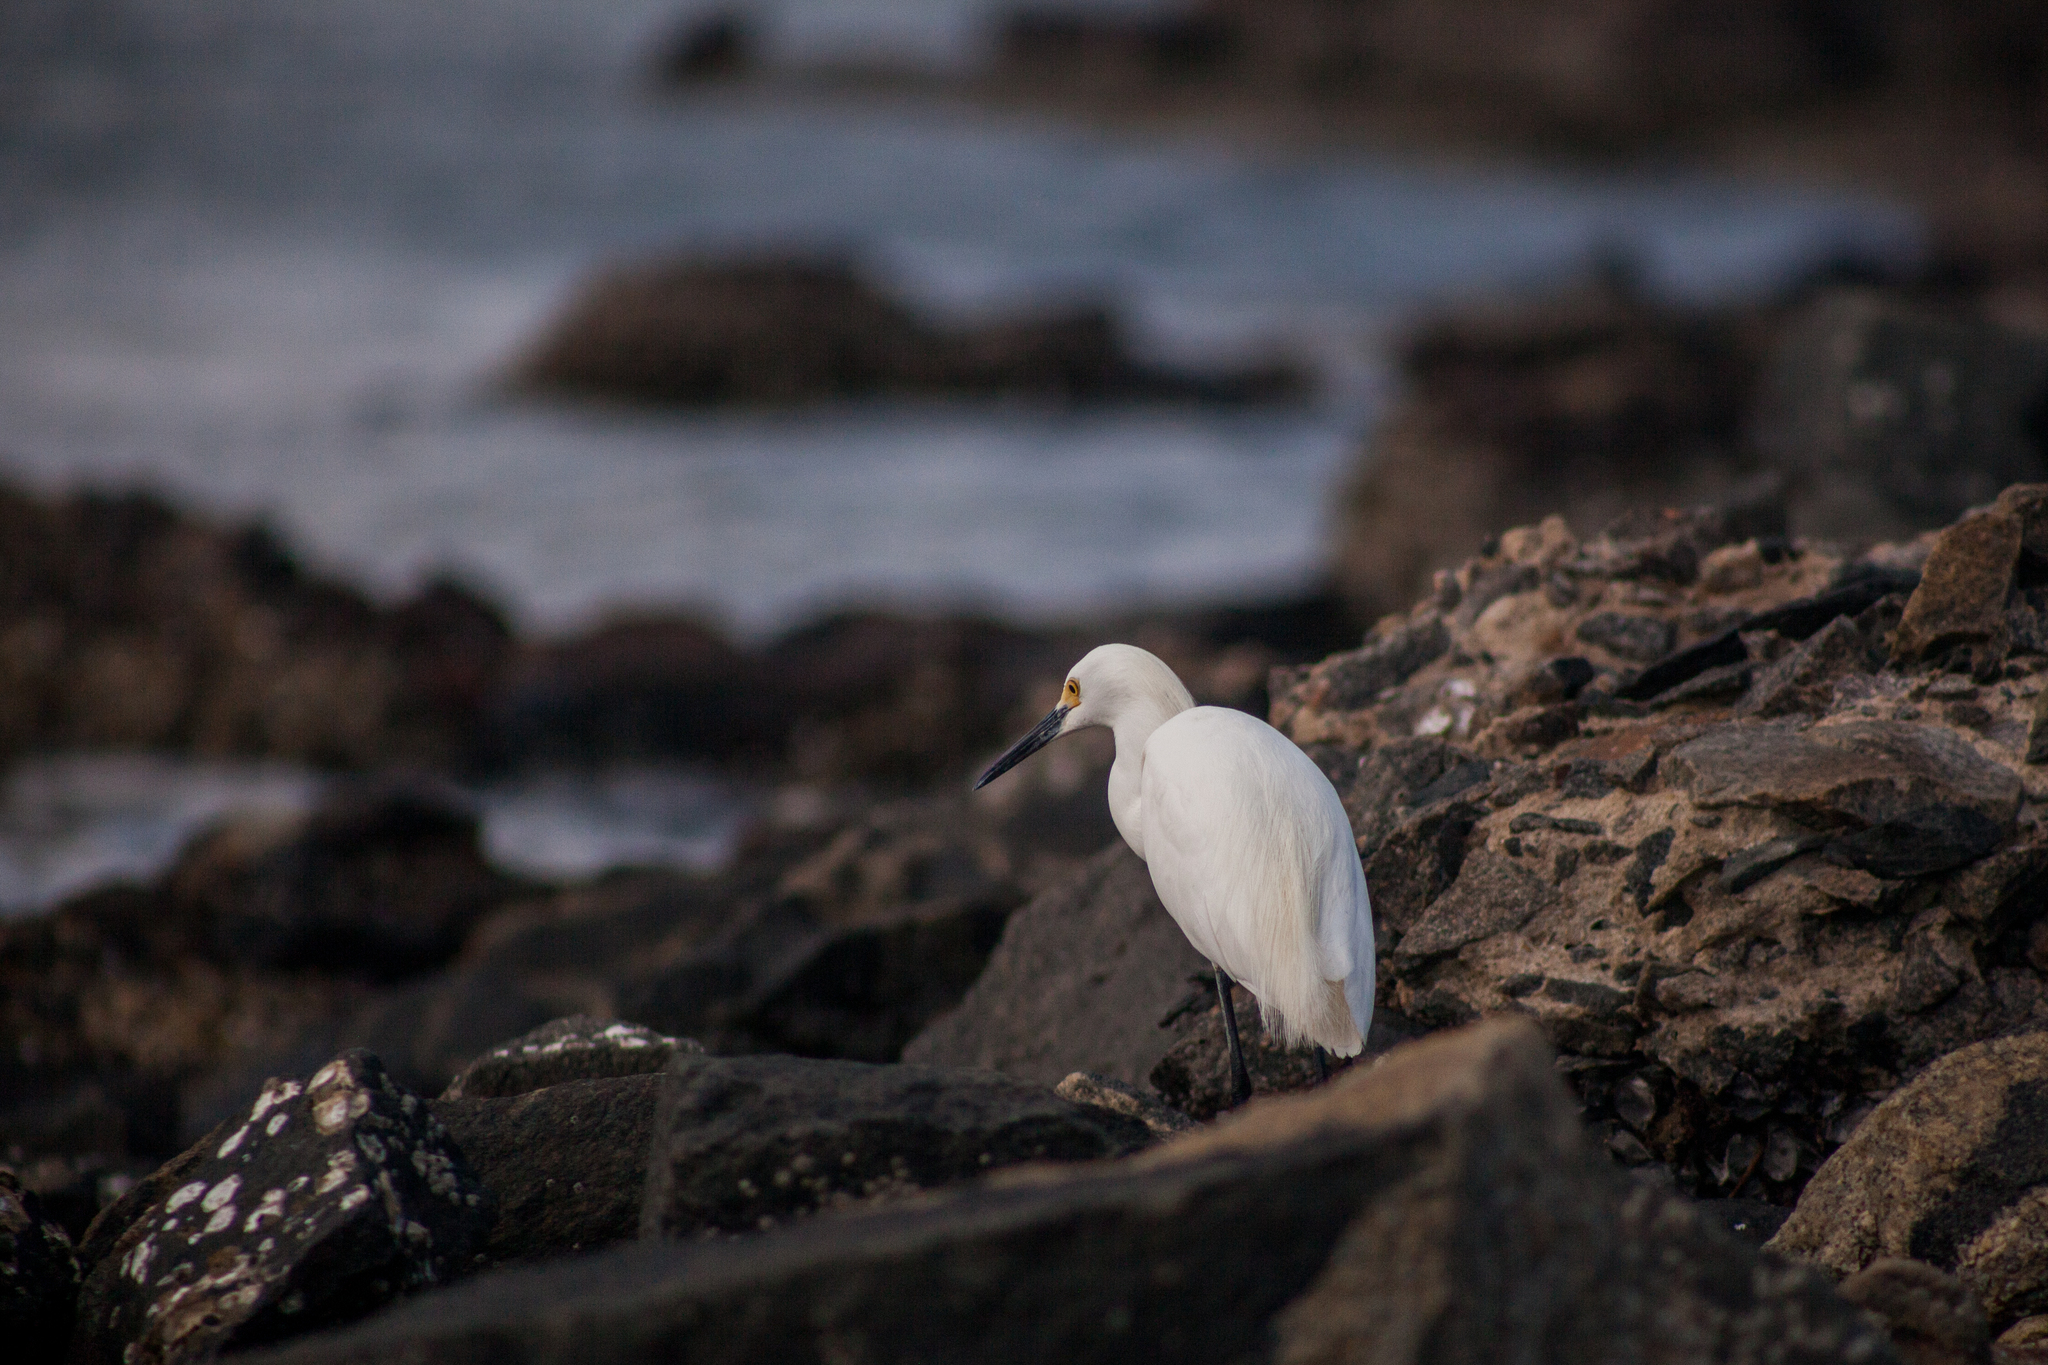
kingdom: Animalia
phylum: Chordata
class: Aves
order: Pelecaniformes
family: Ardeidae
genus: Egretta
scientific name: Egretta thula
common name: Snowy egret
